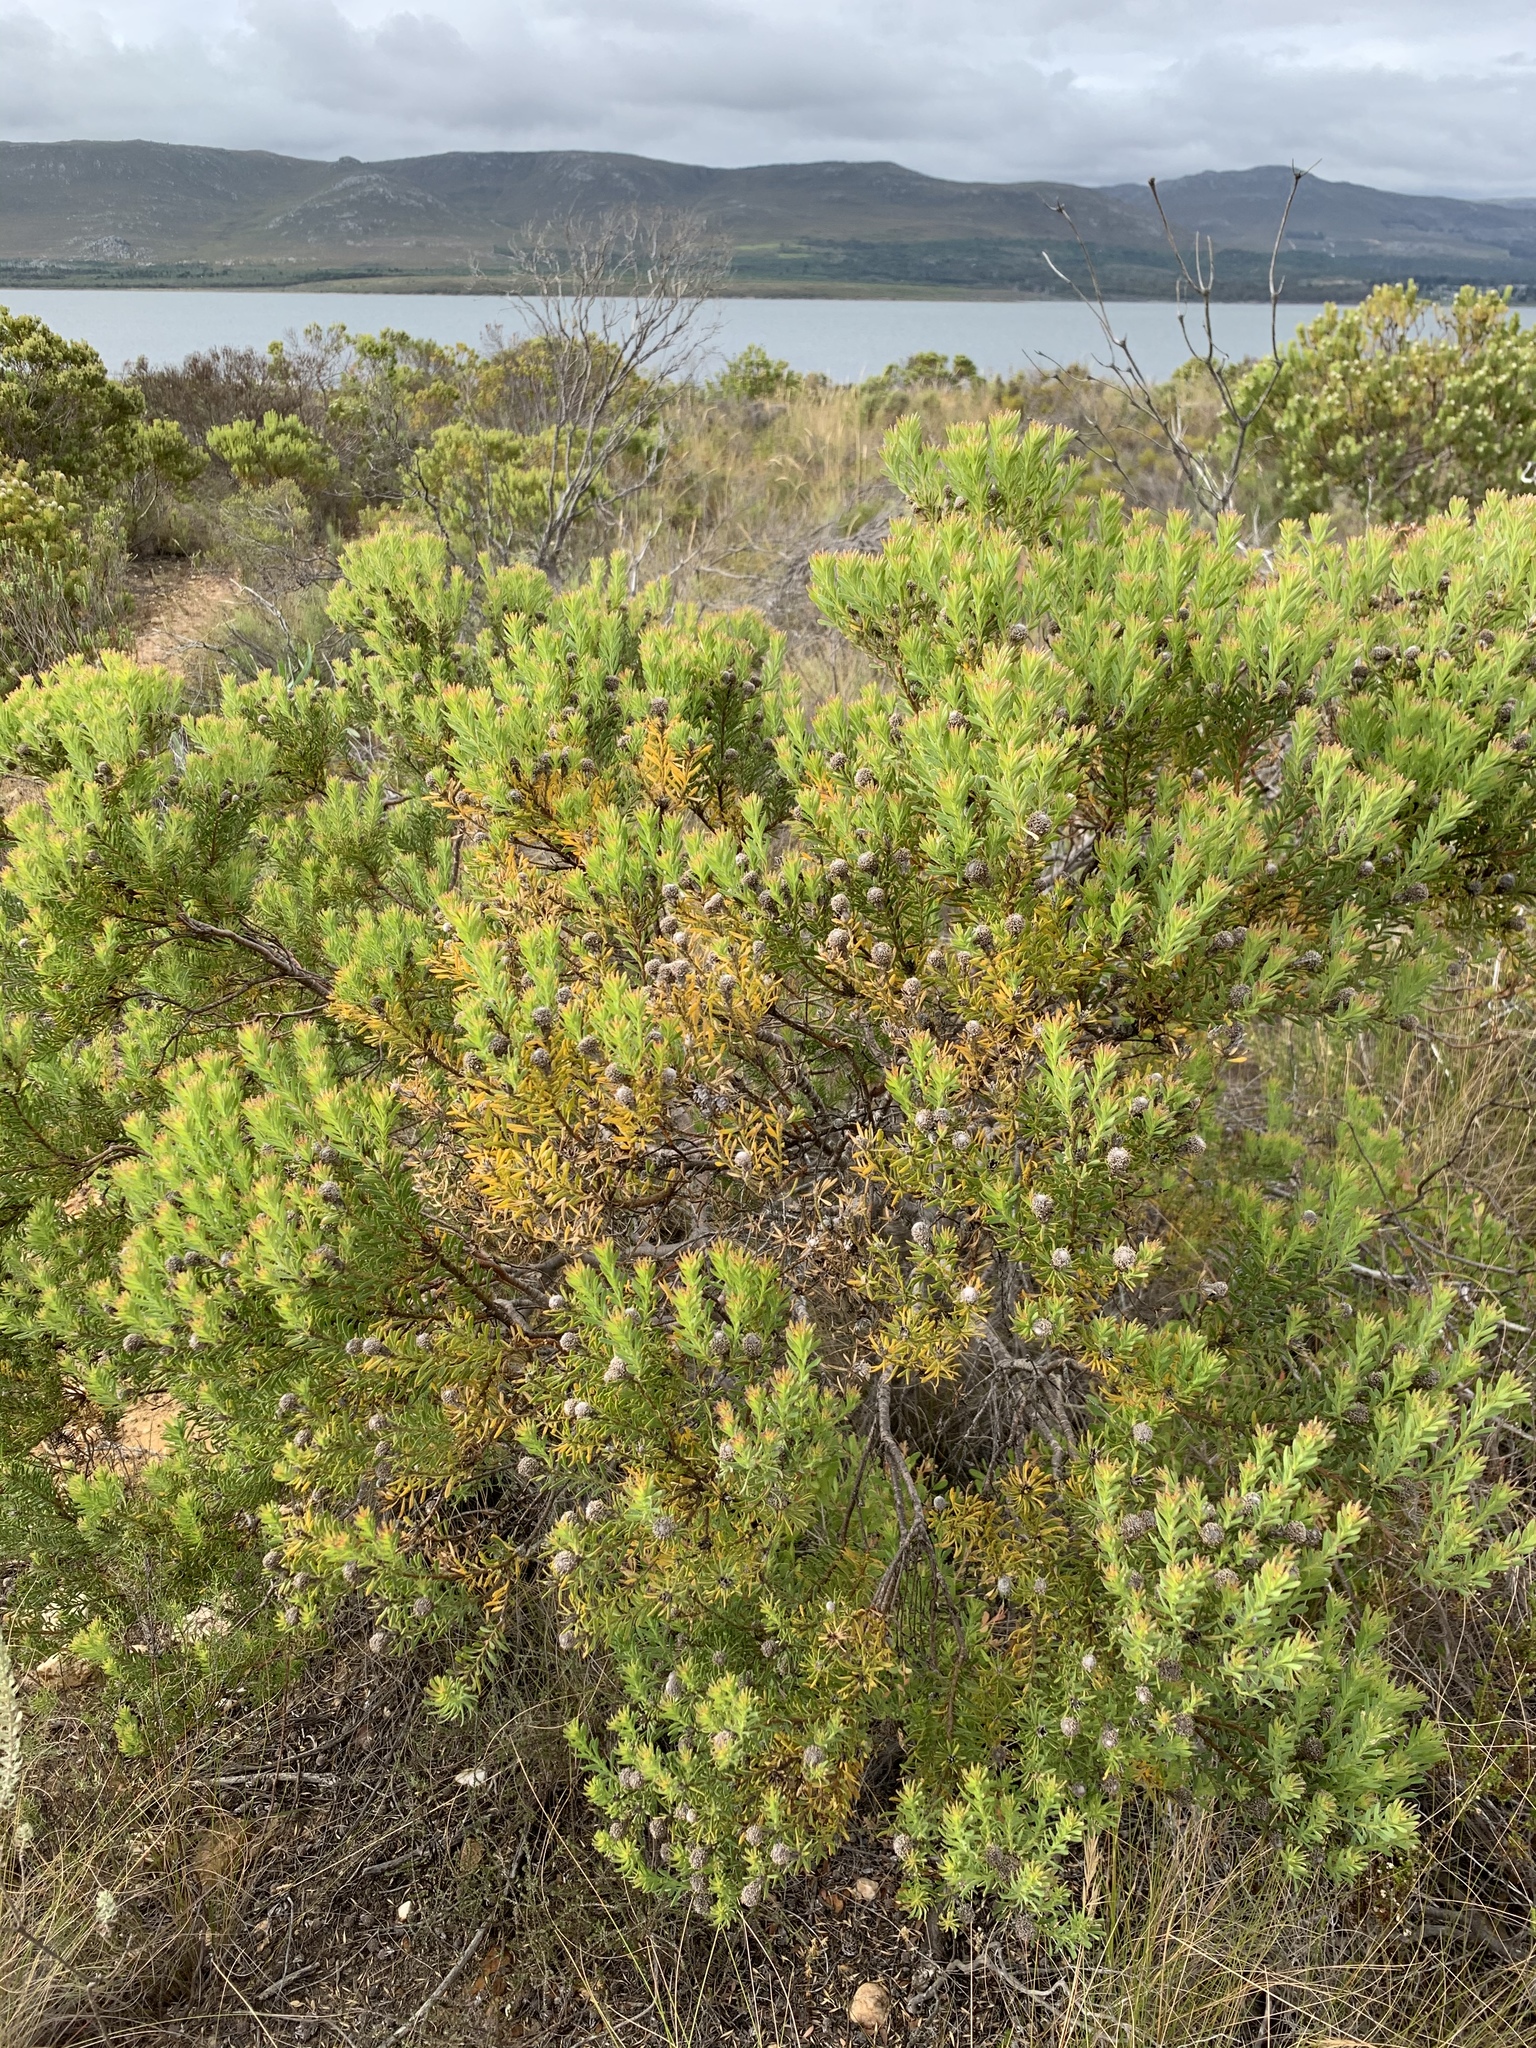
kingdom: Plantae
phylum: Tracheophyta
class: Magnoliopsida
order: Proteales
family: Proteaceae
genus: Leucadendron
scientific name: Leucadendron linifolium
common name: Line-leaf conebush
